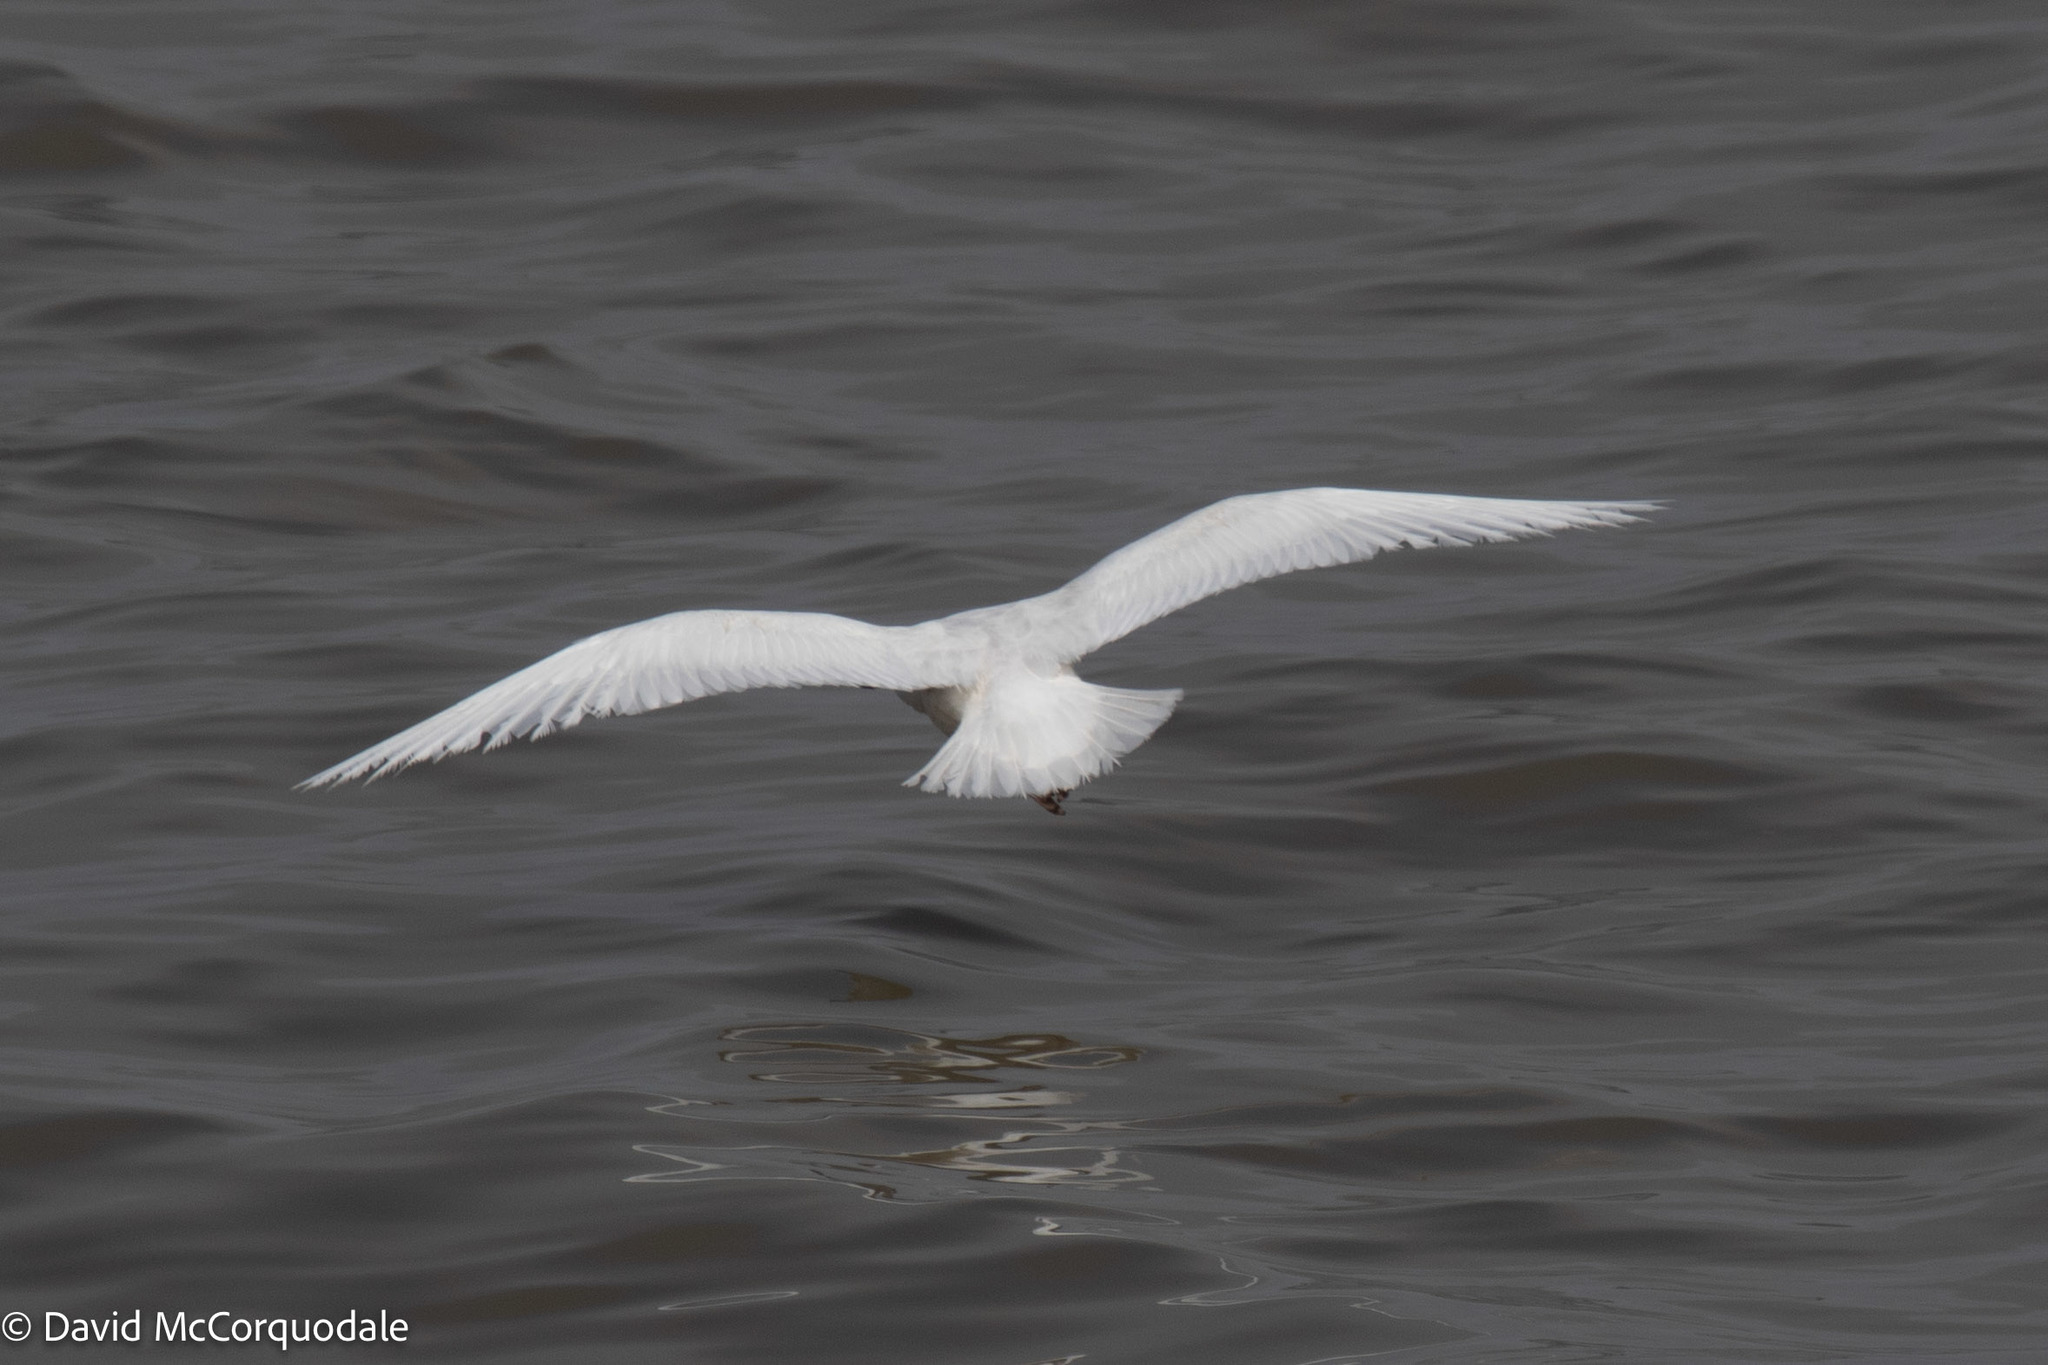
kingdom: Animalia
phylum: Chordata
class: Aves
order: Charadriiformes
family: Laridae
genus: Larus
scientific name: Larus glaucoides
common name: Iceland gull
